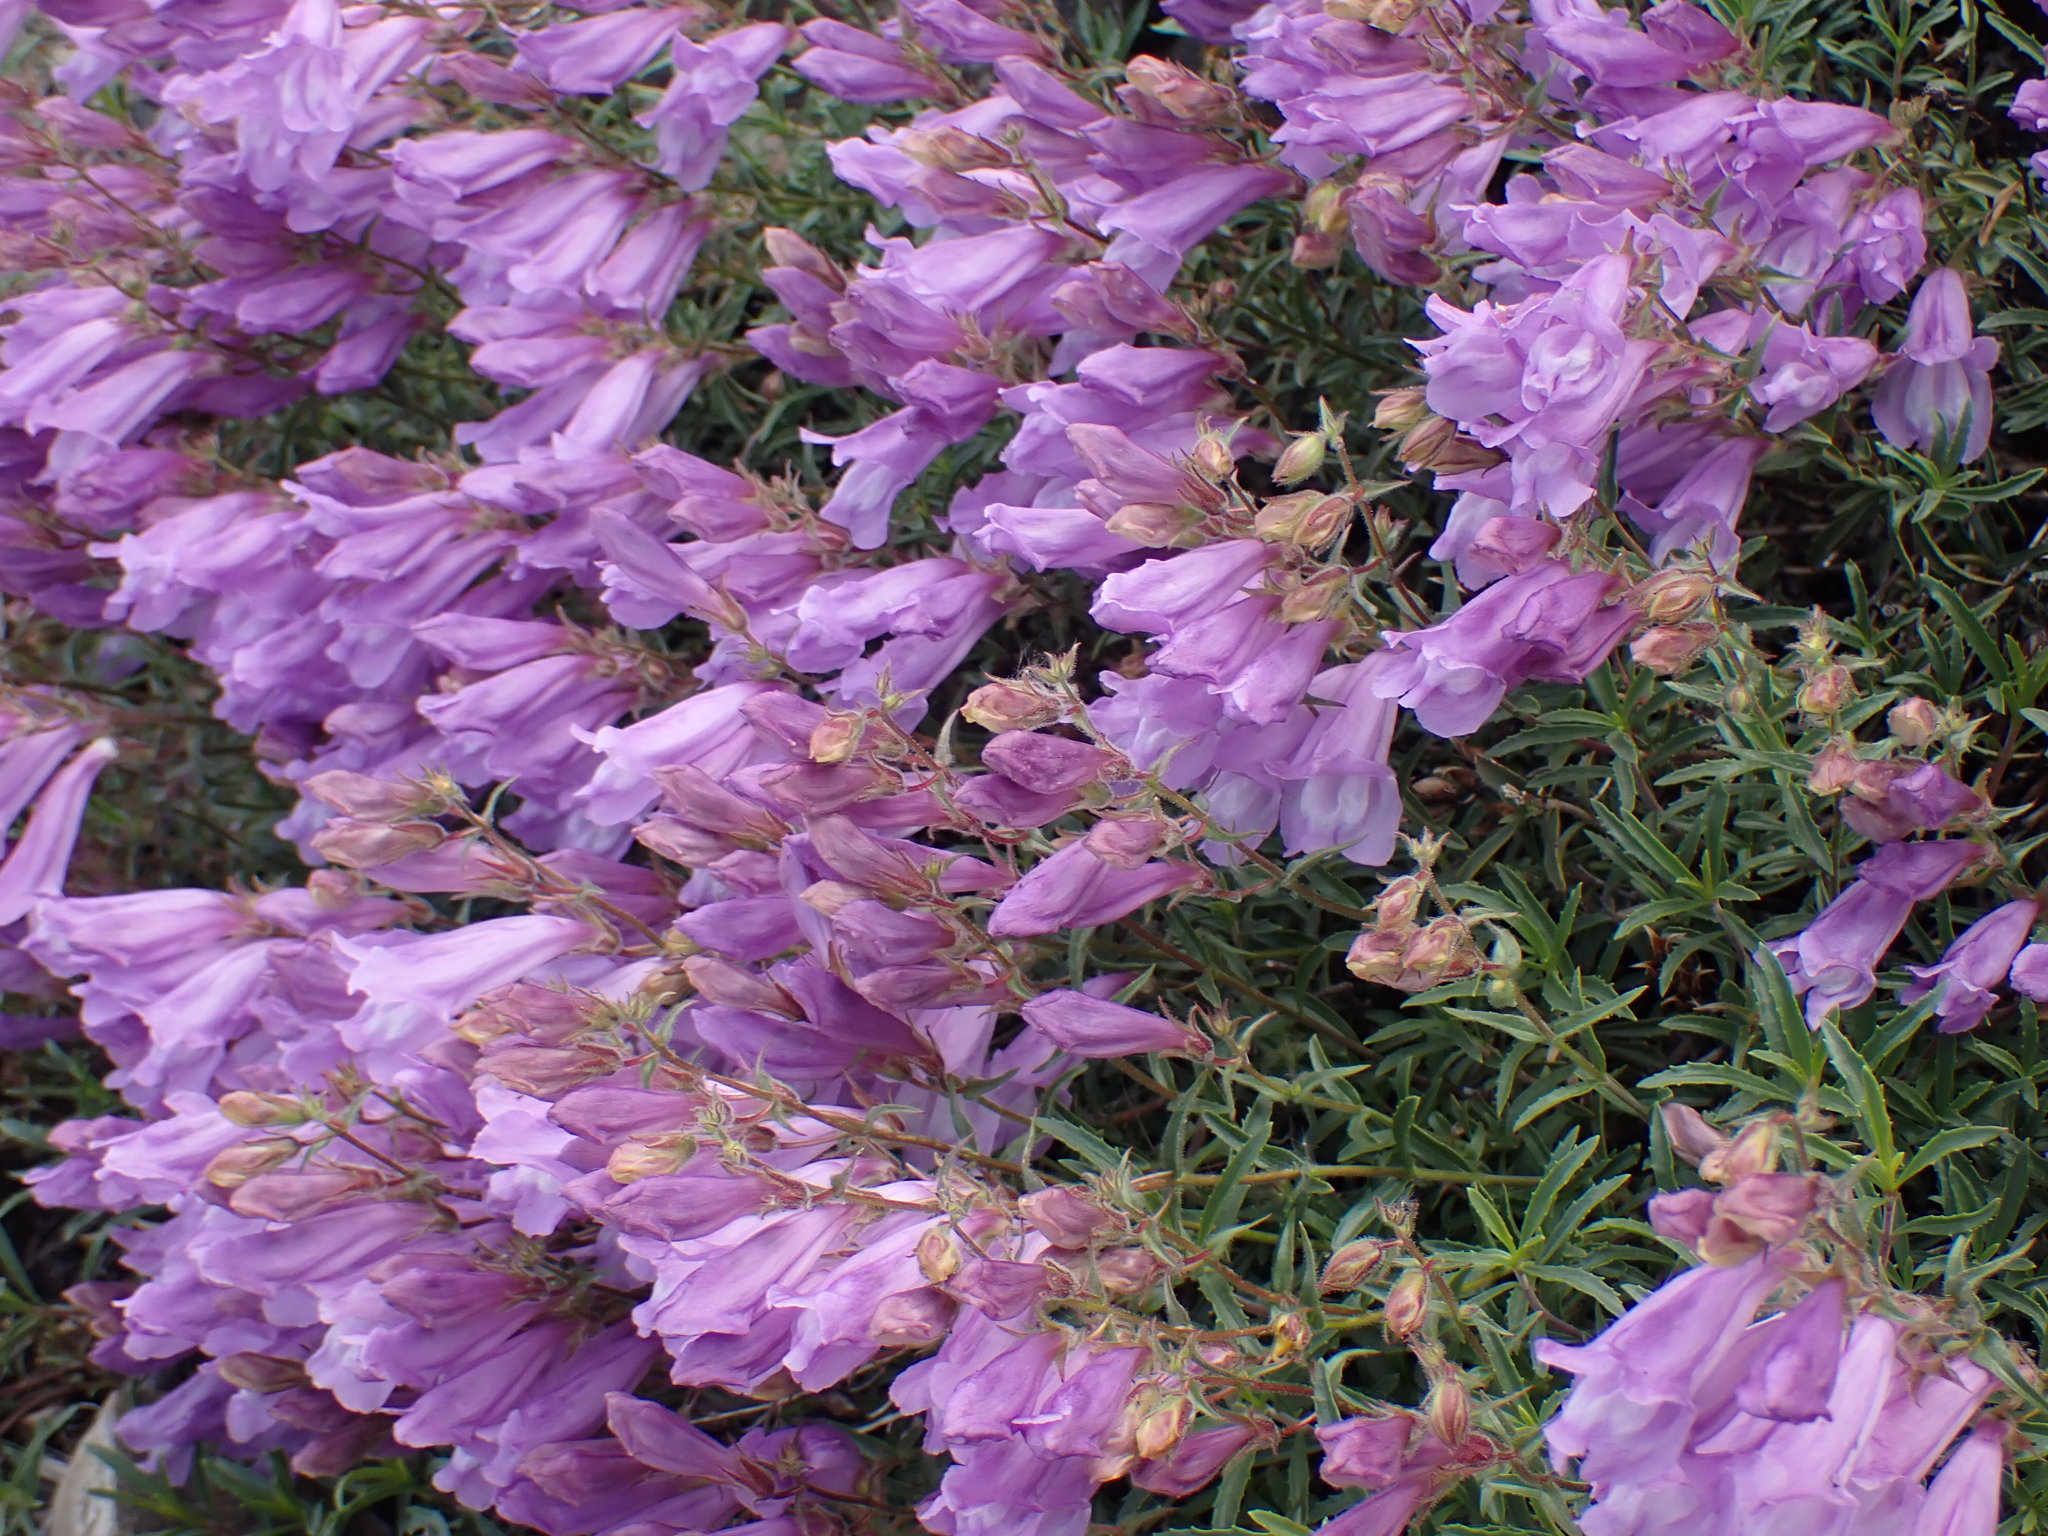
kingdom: Plantae
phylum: Tracheophyta
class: Magnoliopsida
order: Lamiales
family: Plantaginaceae
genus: Penstemon
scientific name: Penstemon fruticosus
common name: Bush penstemon
